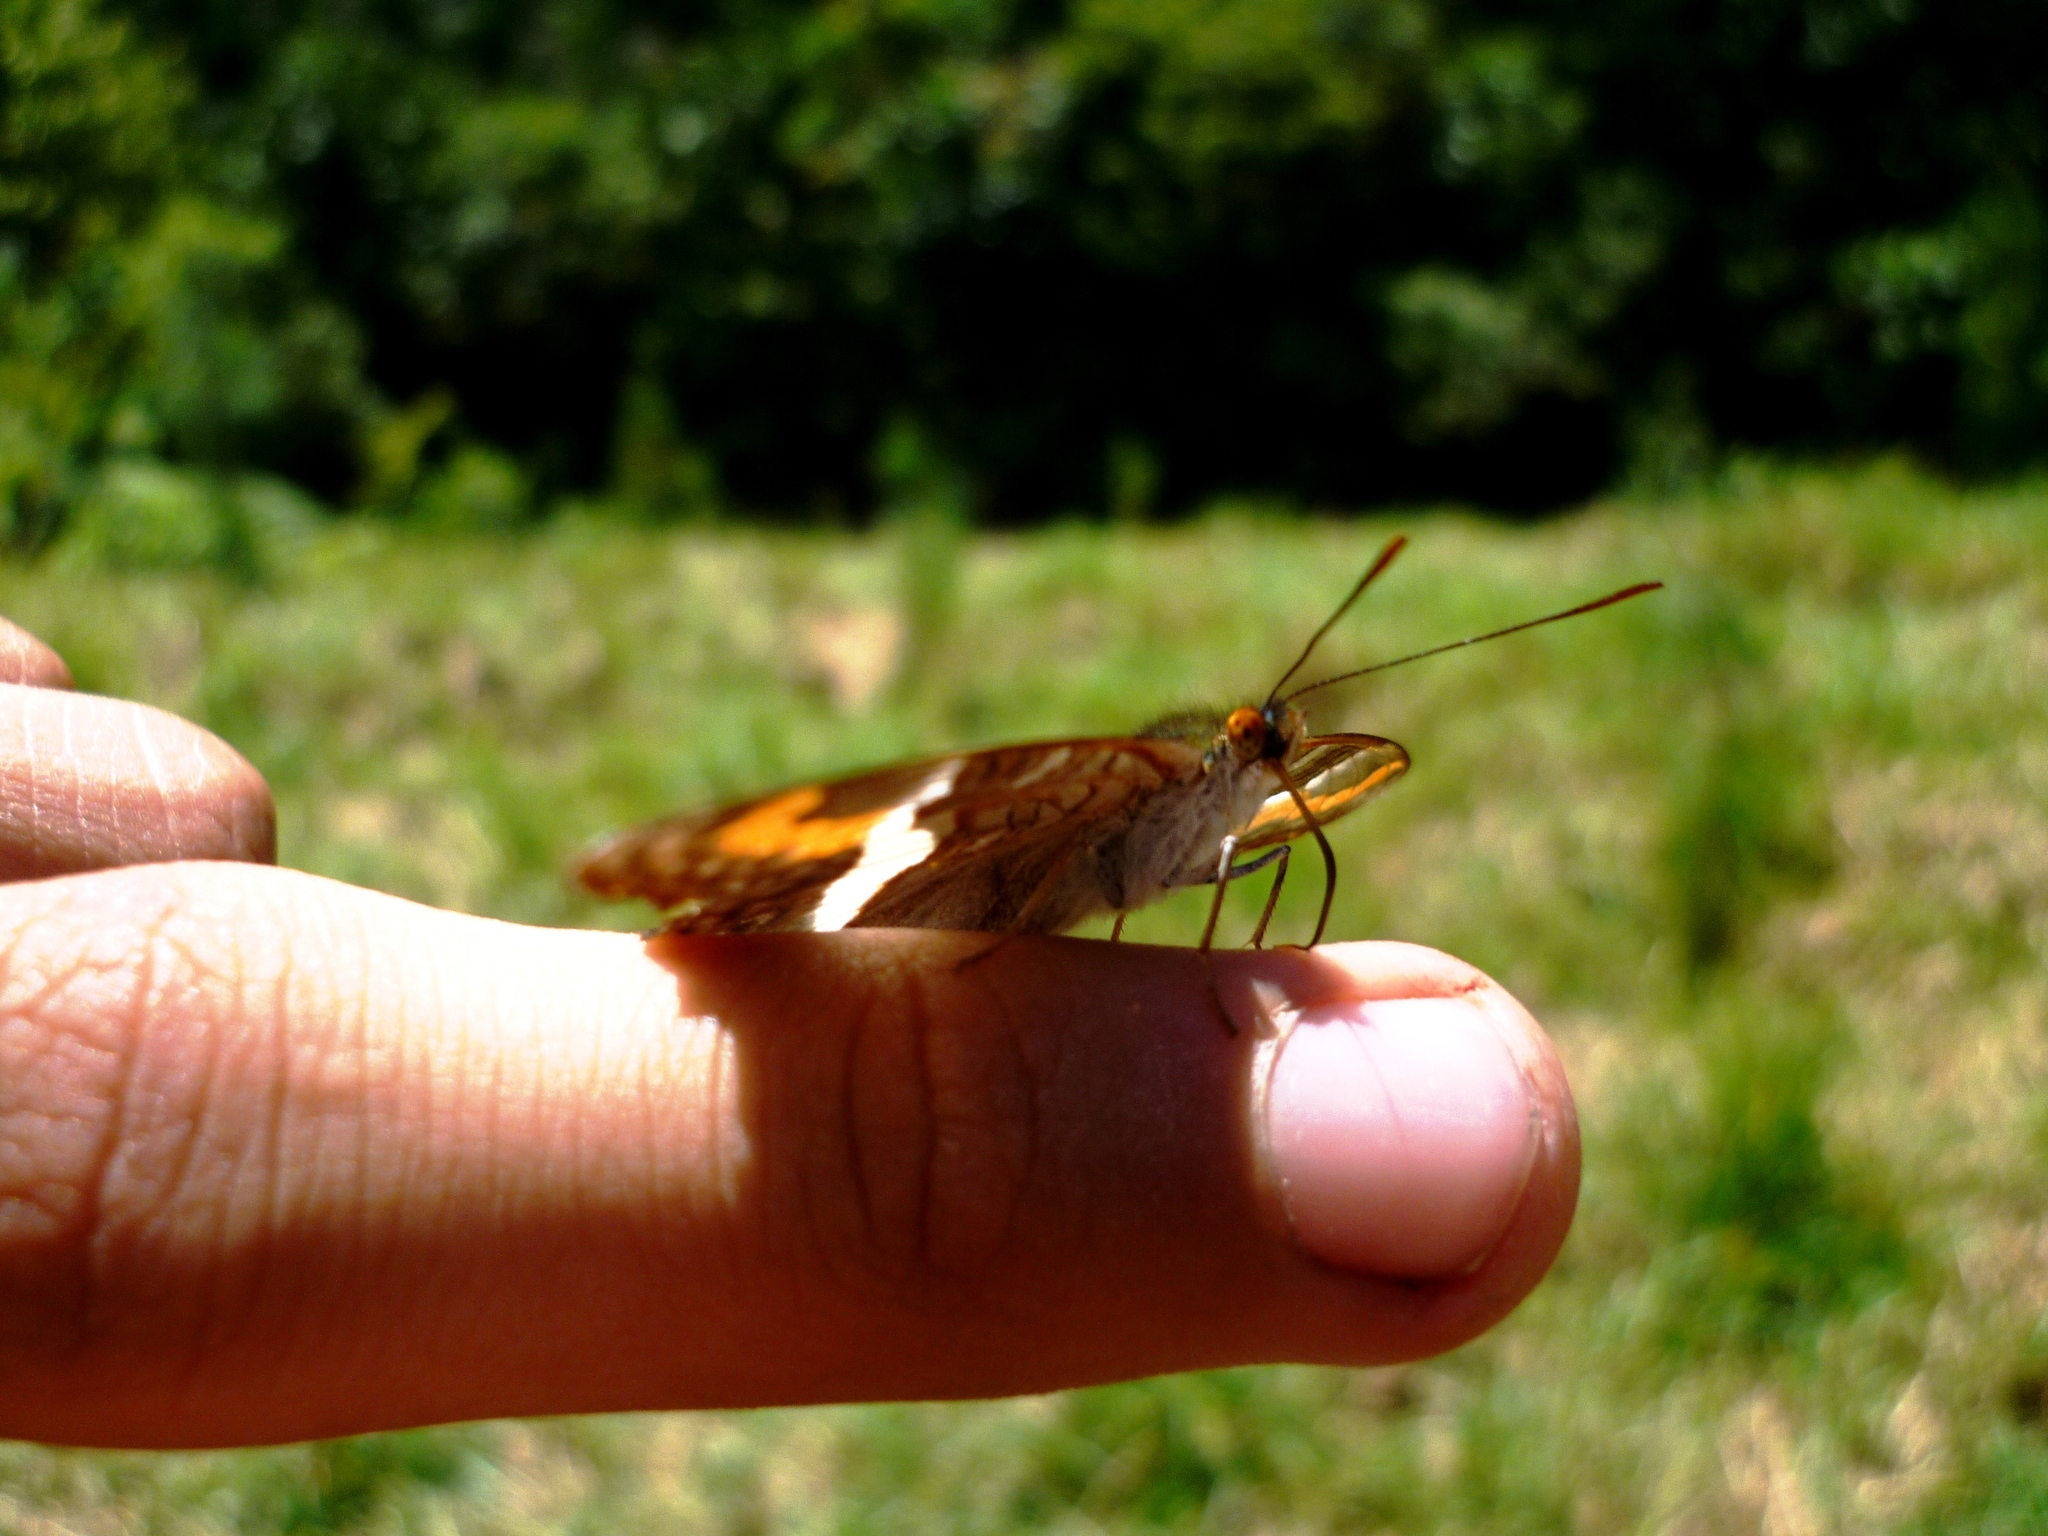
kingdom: Animalia
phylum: Arthropoda
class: Insecta
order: Lepidoptera
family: Nymphalidae
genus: Limenitis
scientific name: Limenitis corcyra
